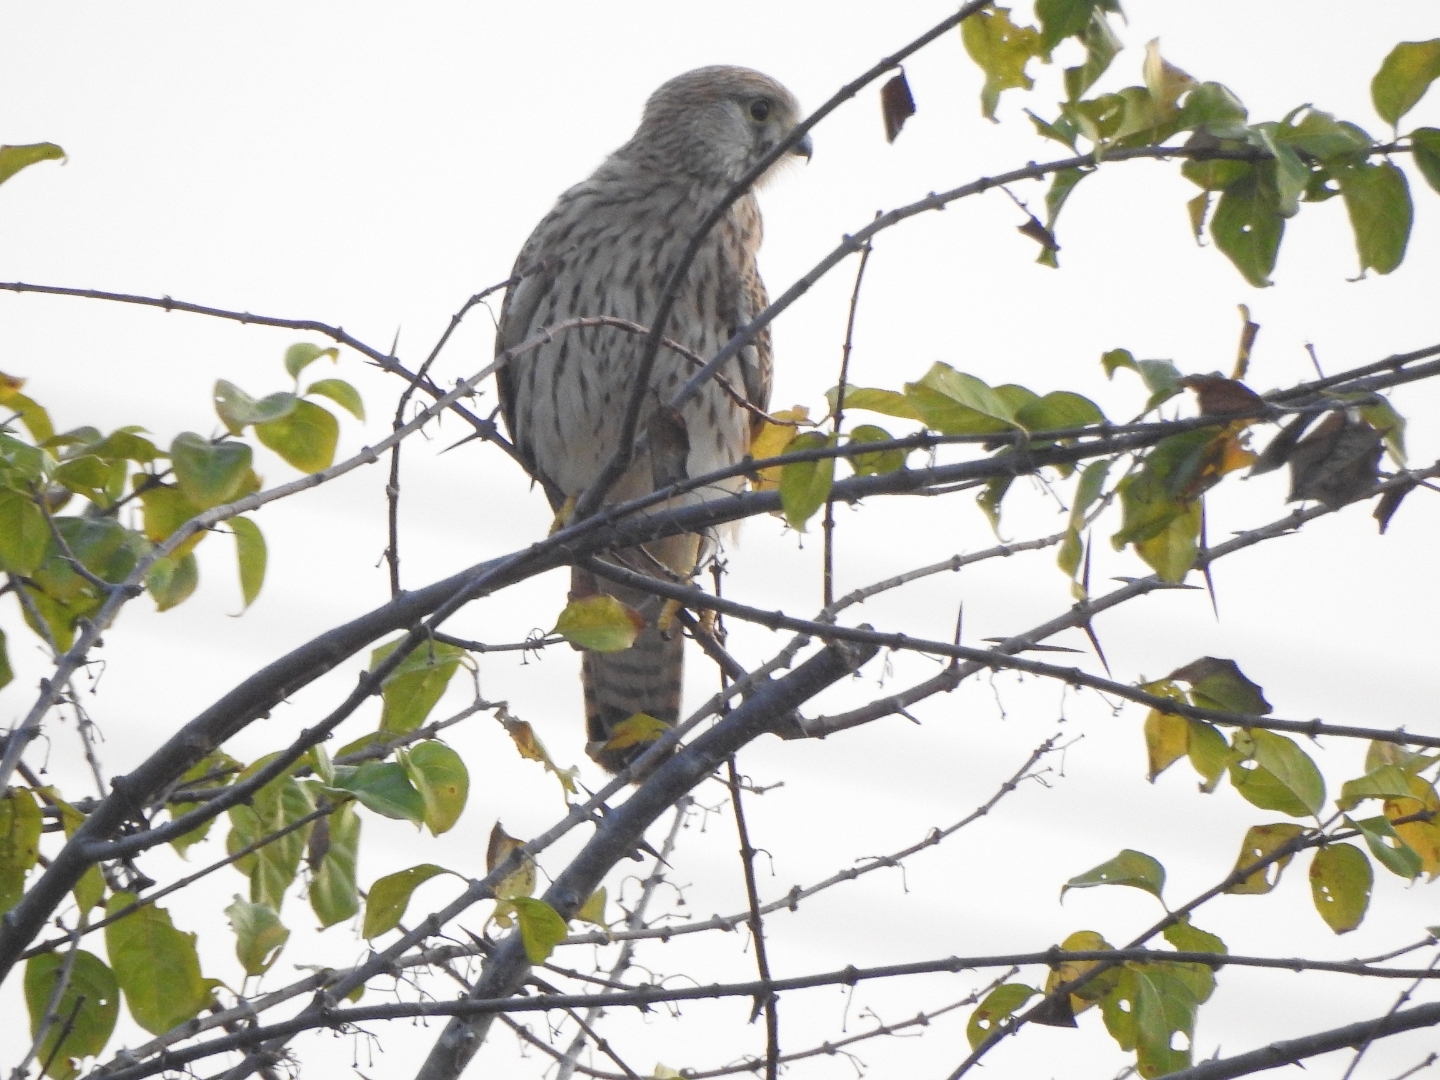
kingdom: Animalia
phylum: Chordata
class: Aves
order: Falconiformes
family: Falconidae
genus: Falco
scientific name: Falco tinnunculus
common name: Common kestrel
